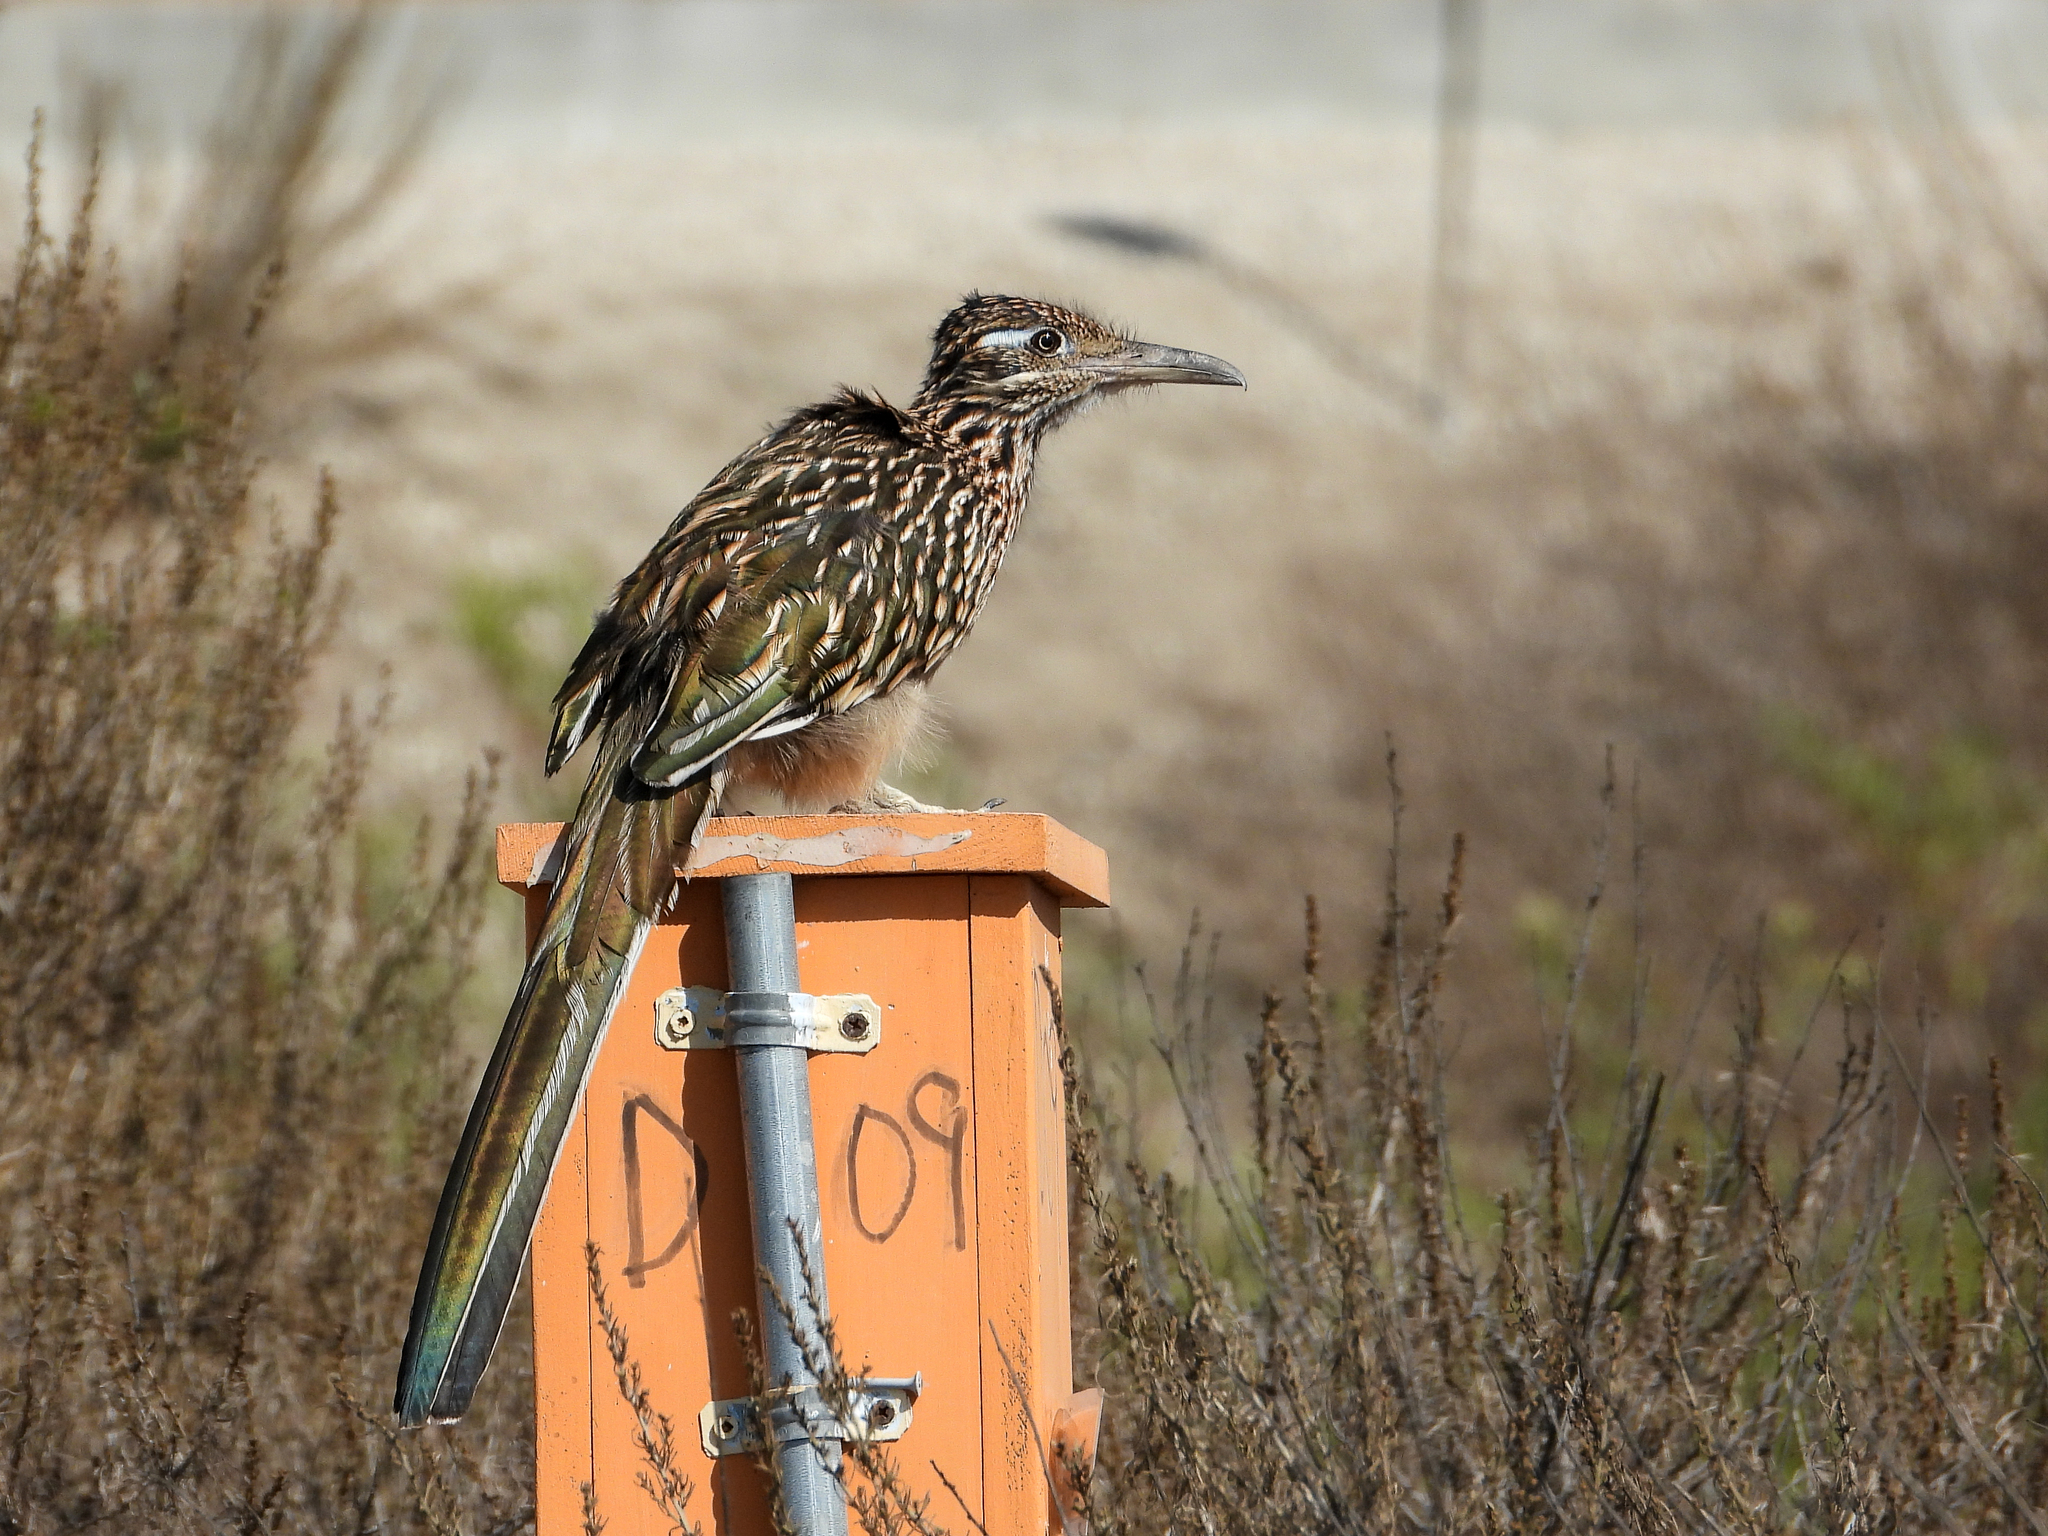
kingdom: Animalia
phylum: Chordata
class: Aves
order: Cuculiformes
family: Cuculidae
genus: Geococcyx
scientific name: Geococcyx californianus
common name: Greater roadrunner
